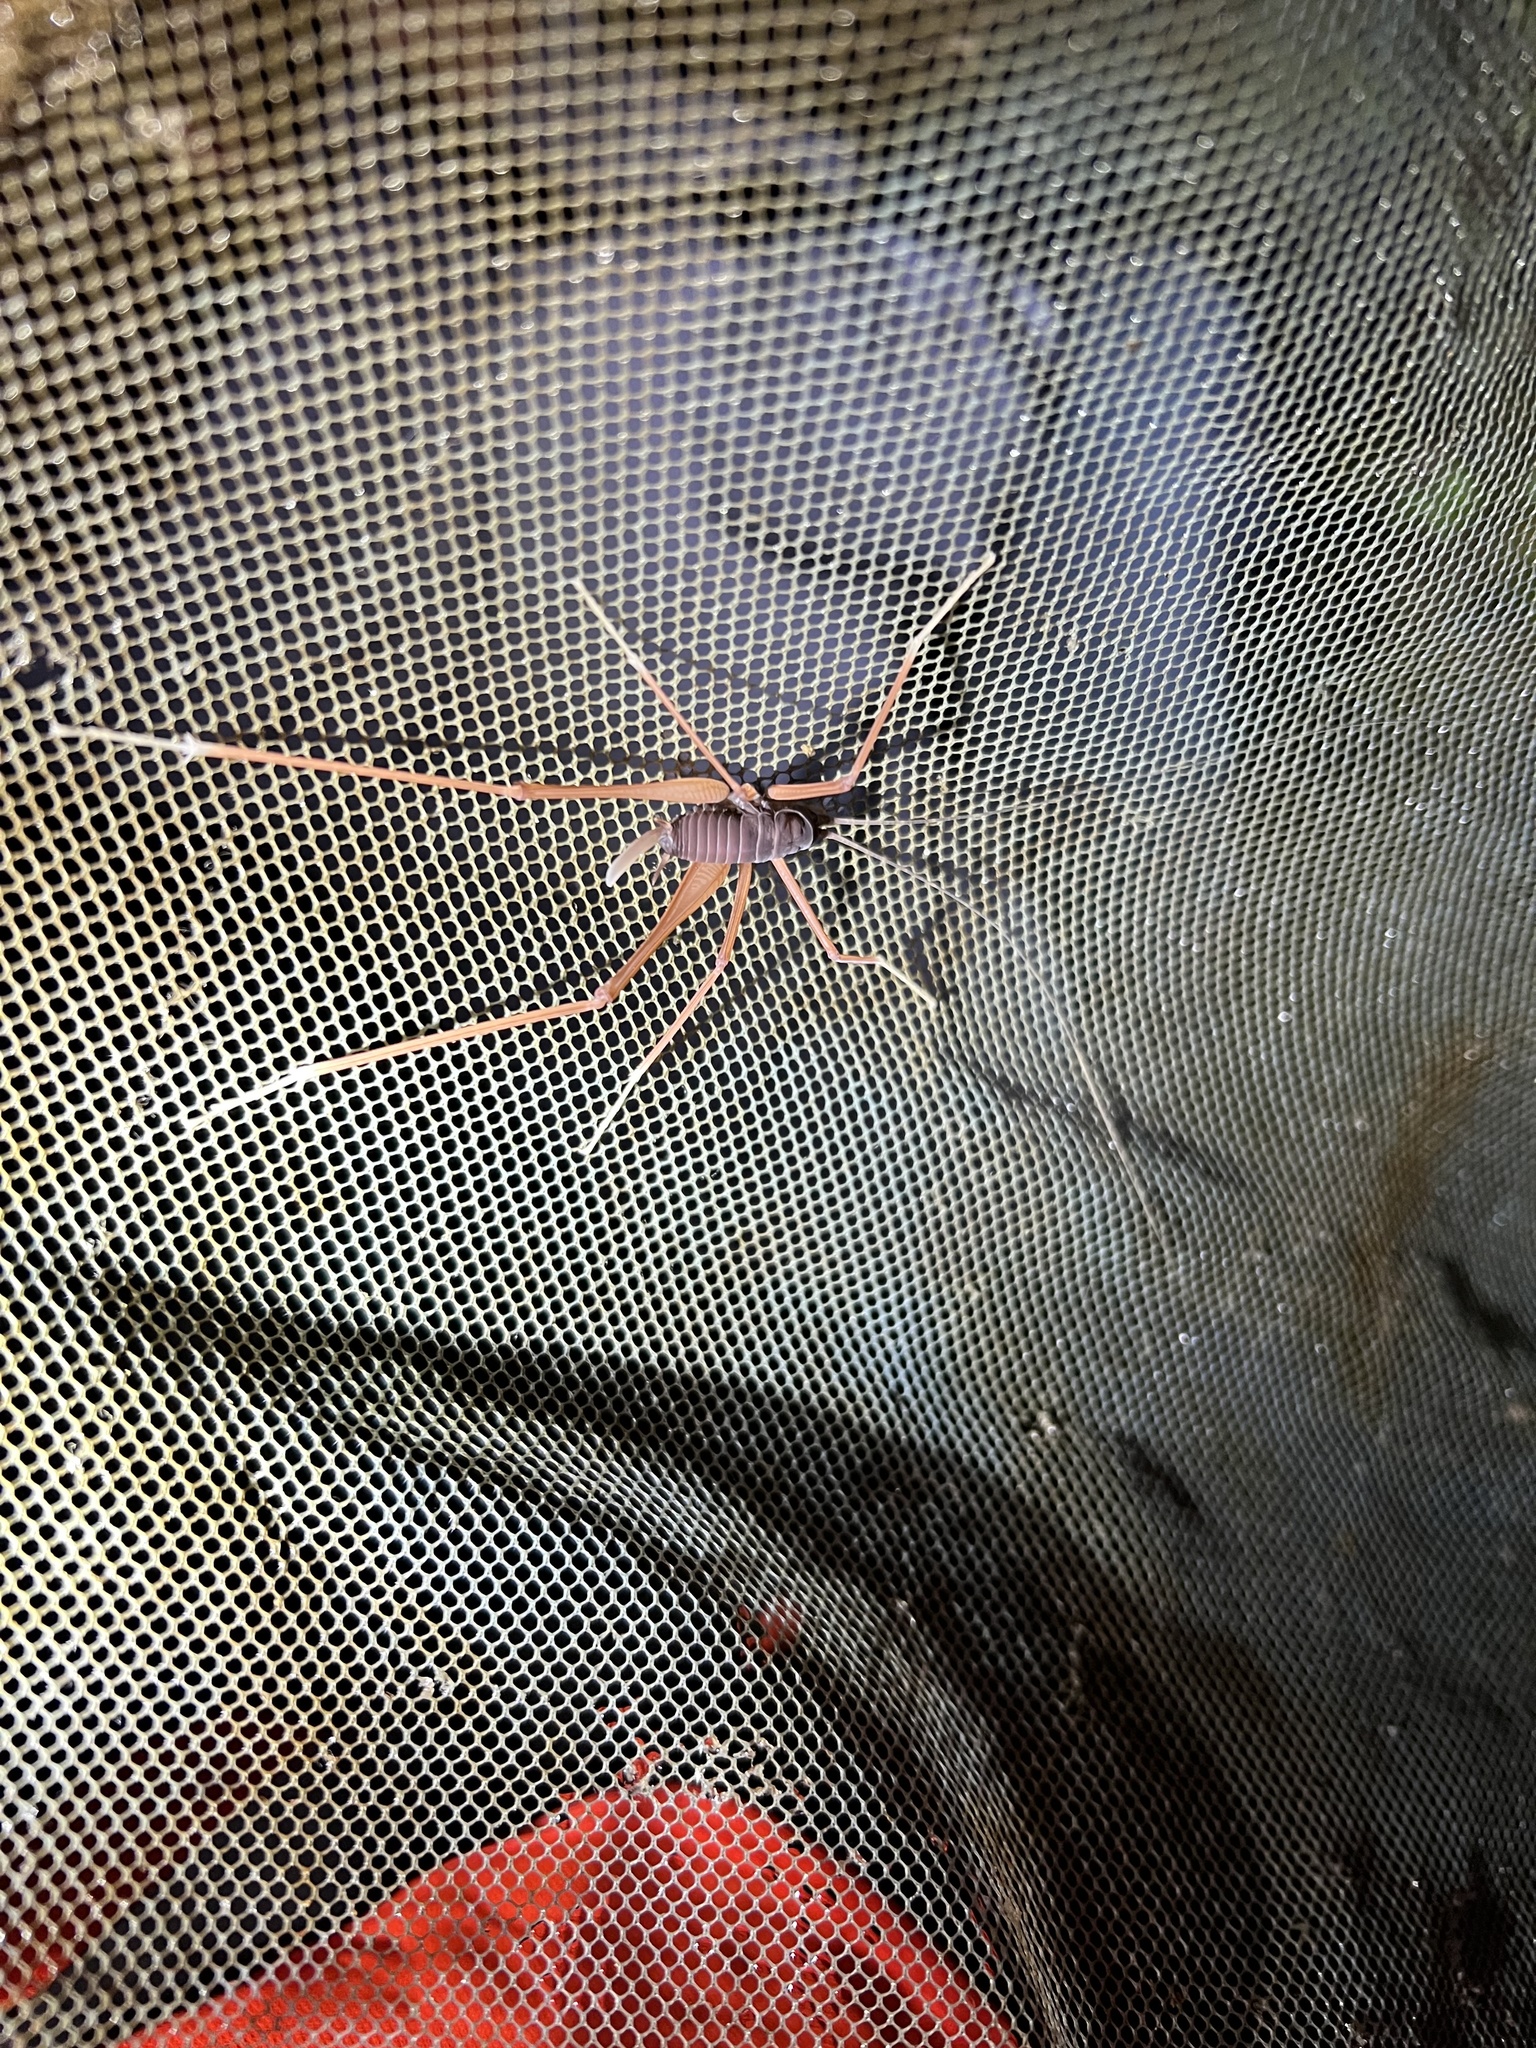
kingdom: Animalia
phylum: Arthropoda
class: Insecta
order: Orthoptera
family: Rhaphidophoridae
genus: Tropidischia
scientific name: Tropidischia xanthostoma
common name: Square-legged camel cricket
